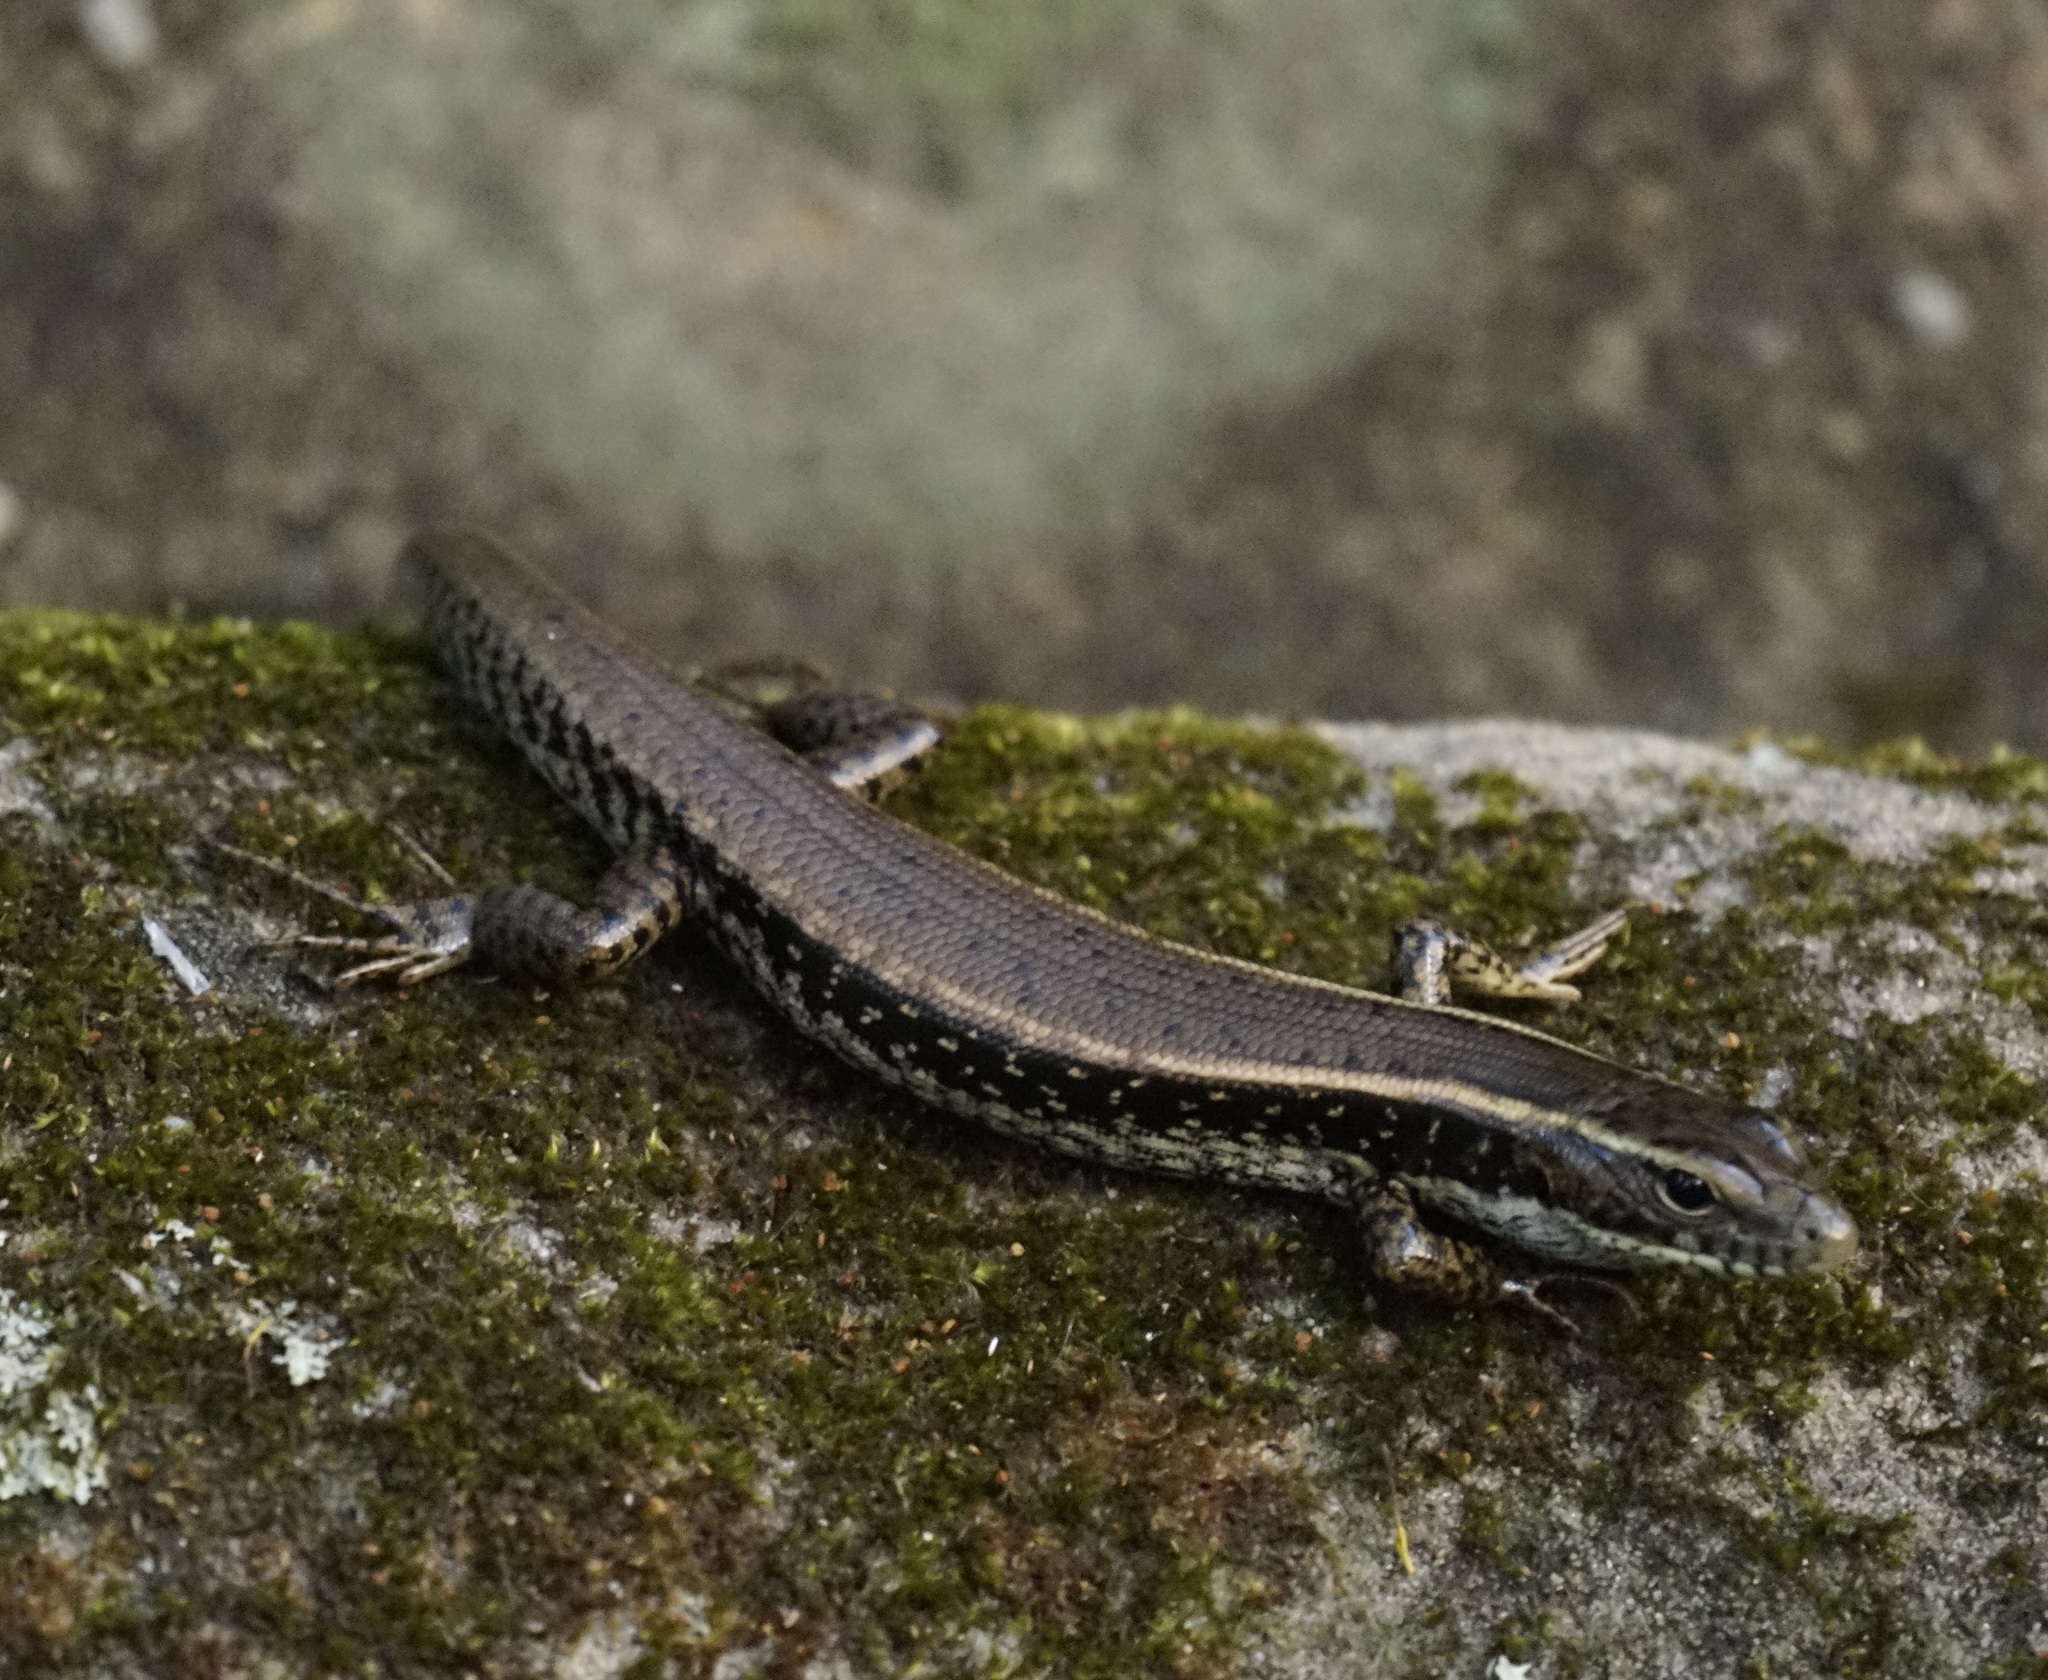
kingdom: Animalia
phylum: Chordata
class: Squamata
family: Scincidae
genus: Eulamprus
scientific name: Eulamprus quoyii
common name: Eastern water skink
